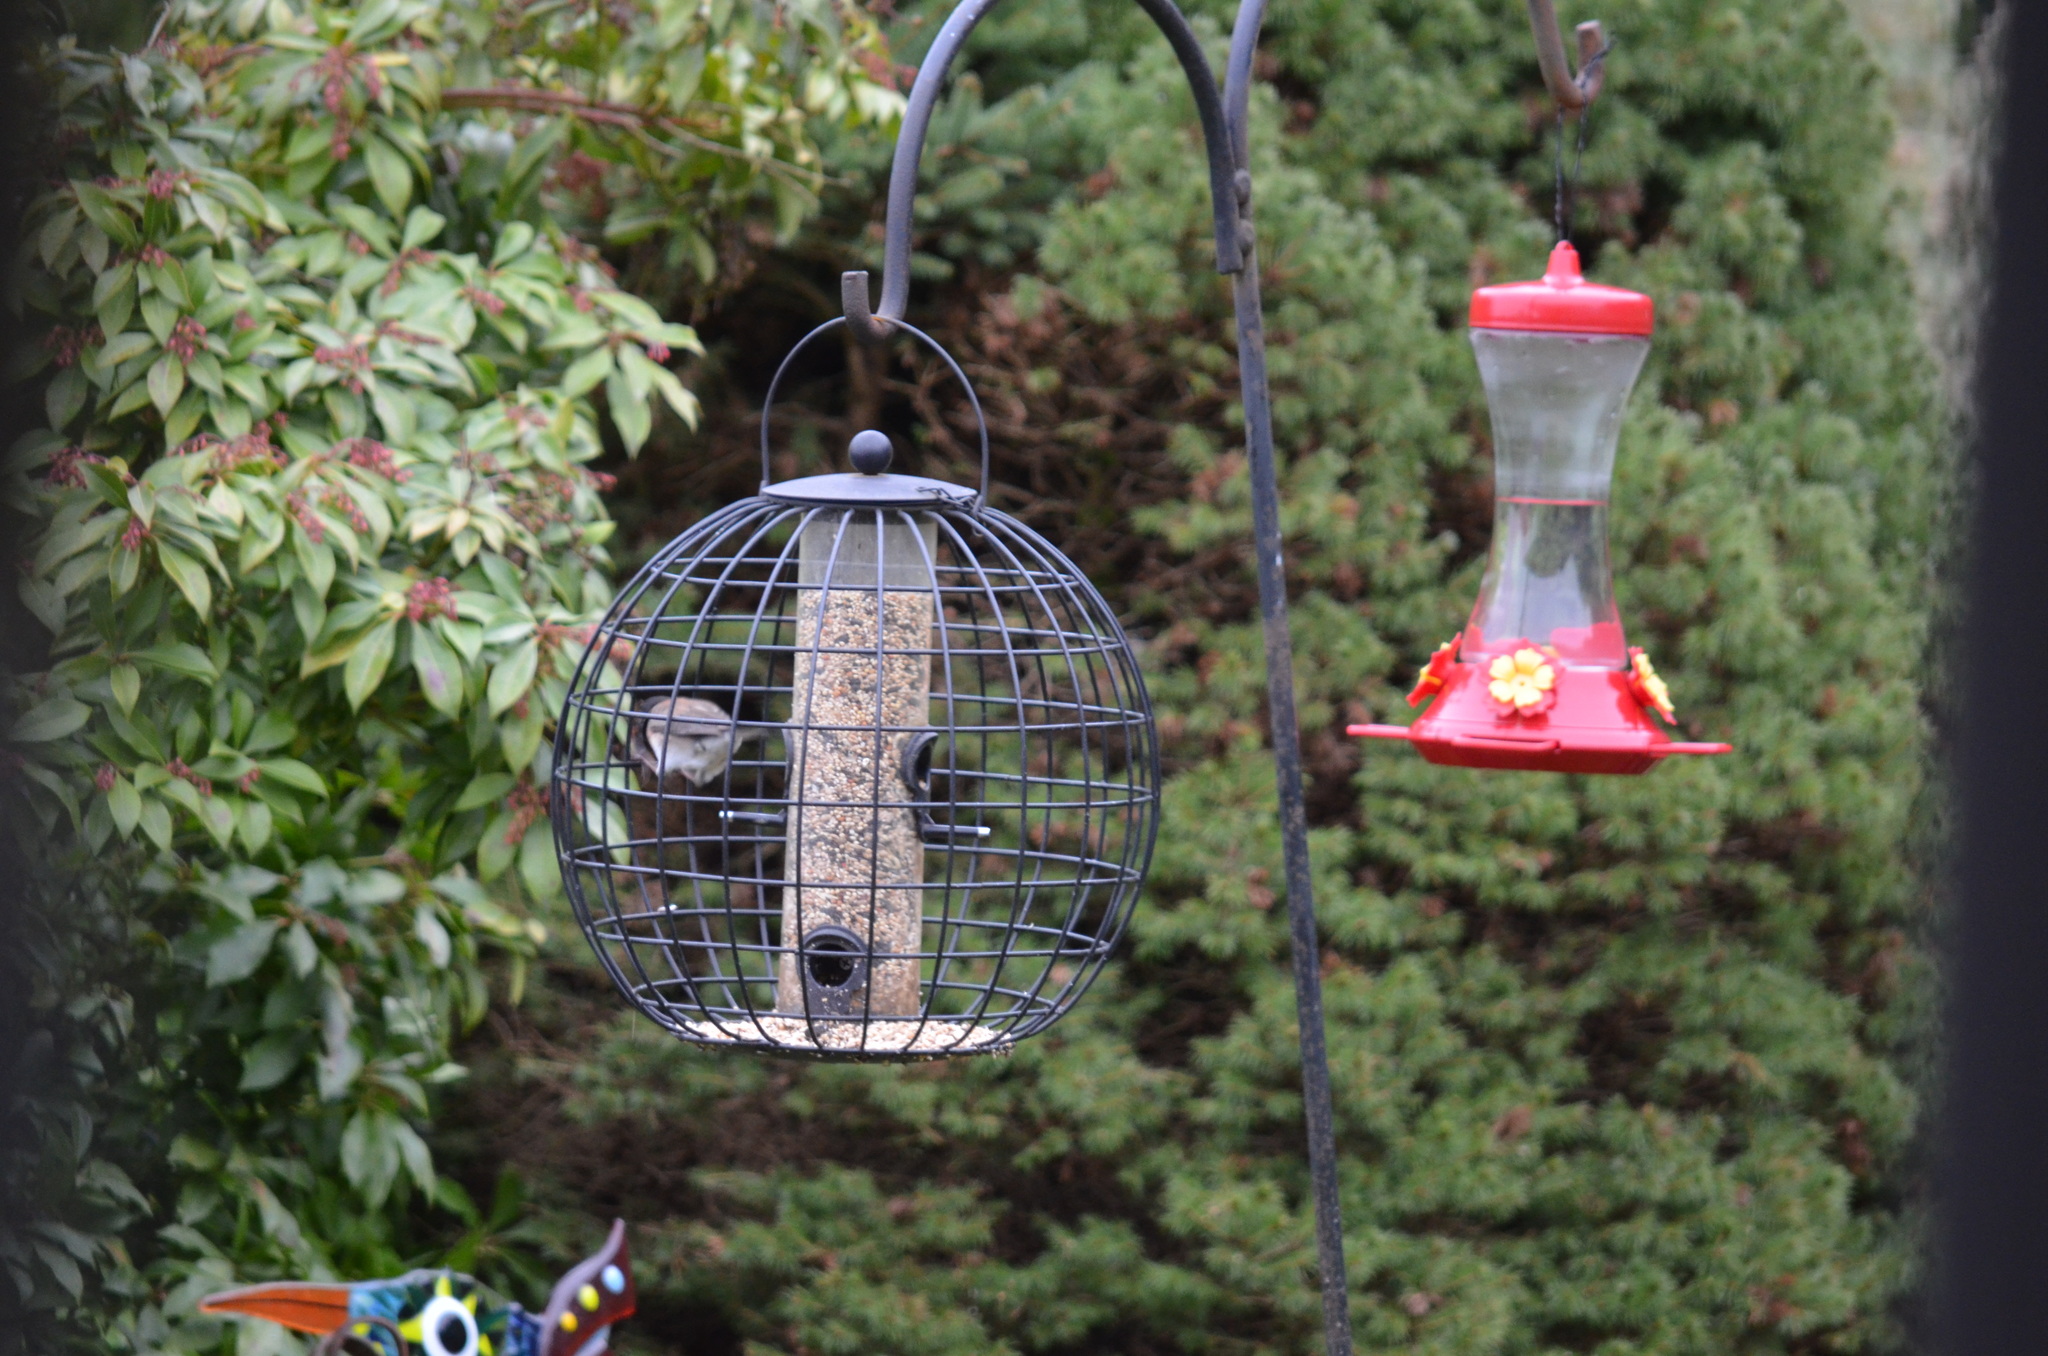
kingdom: Animalia
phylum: Chordata
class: Aves
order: Passeriformes
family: Passerellidae
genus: Junco
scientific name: Junco hyemalis
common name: Dark-eyed junco
